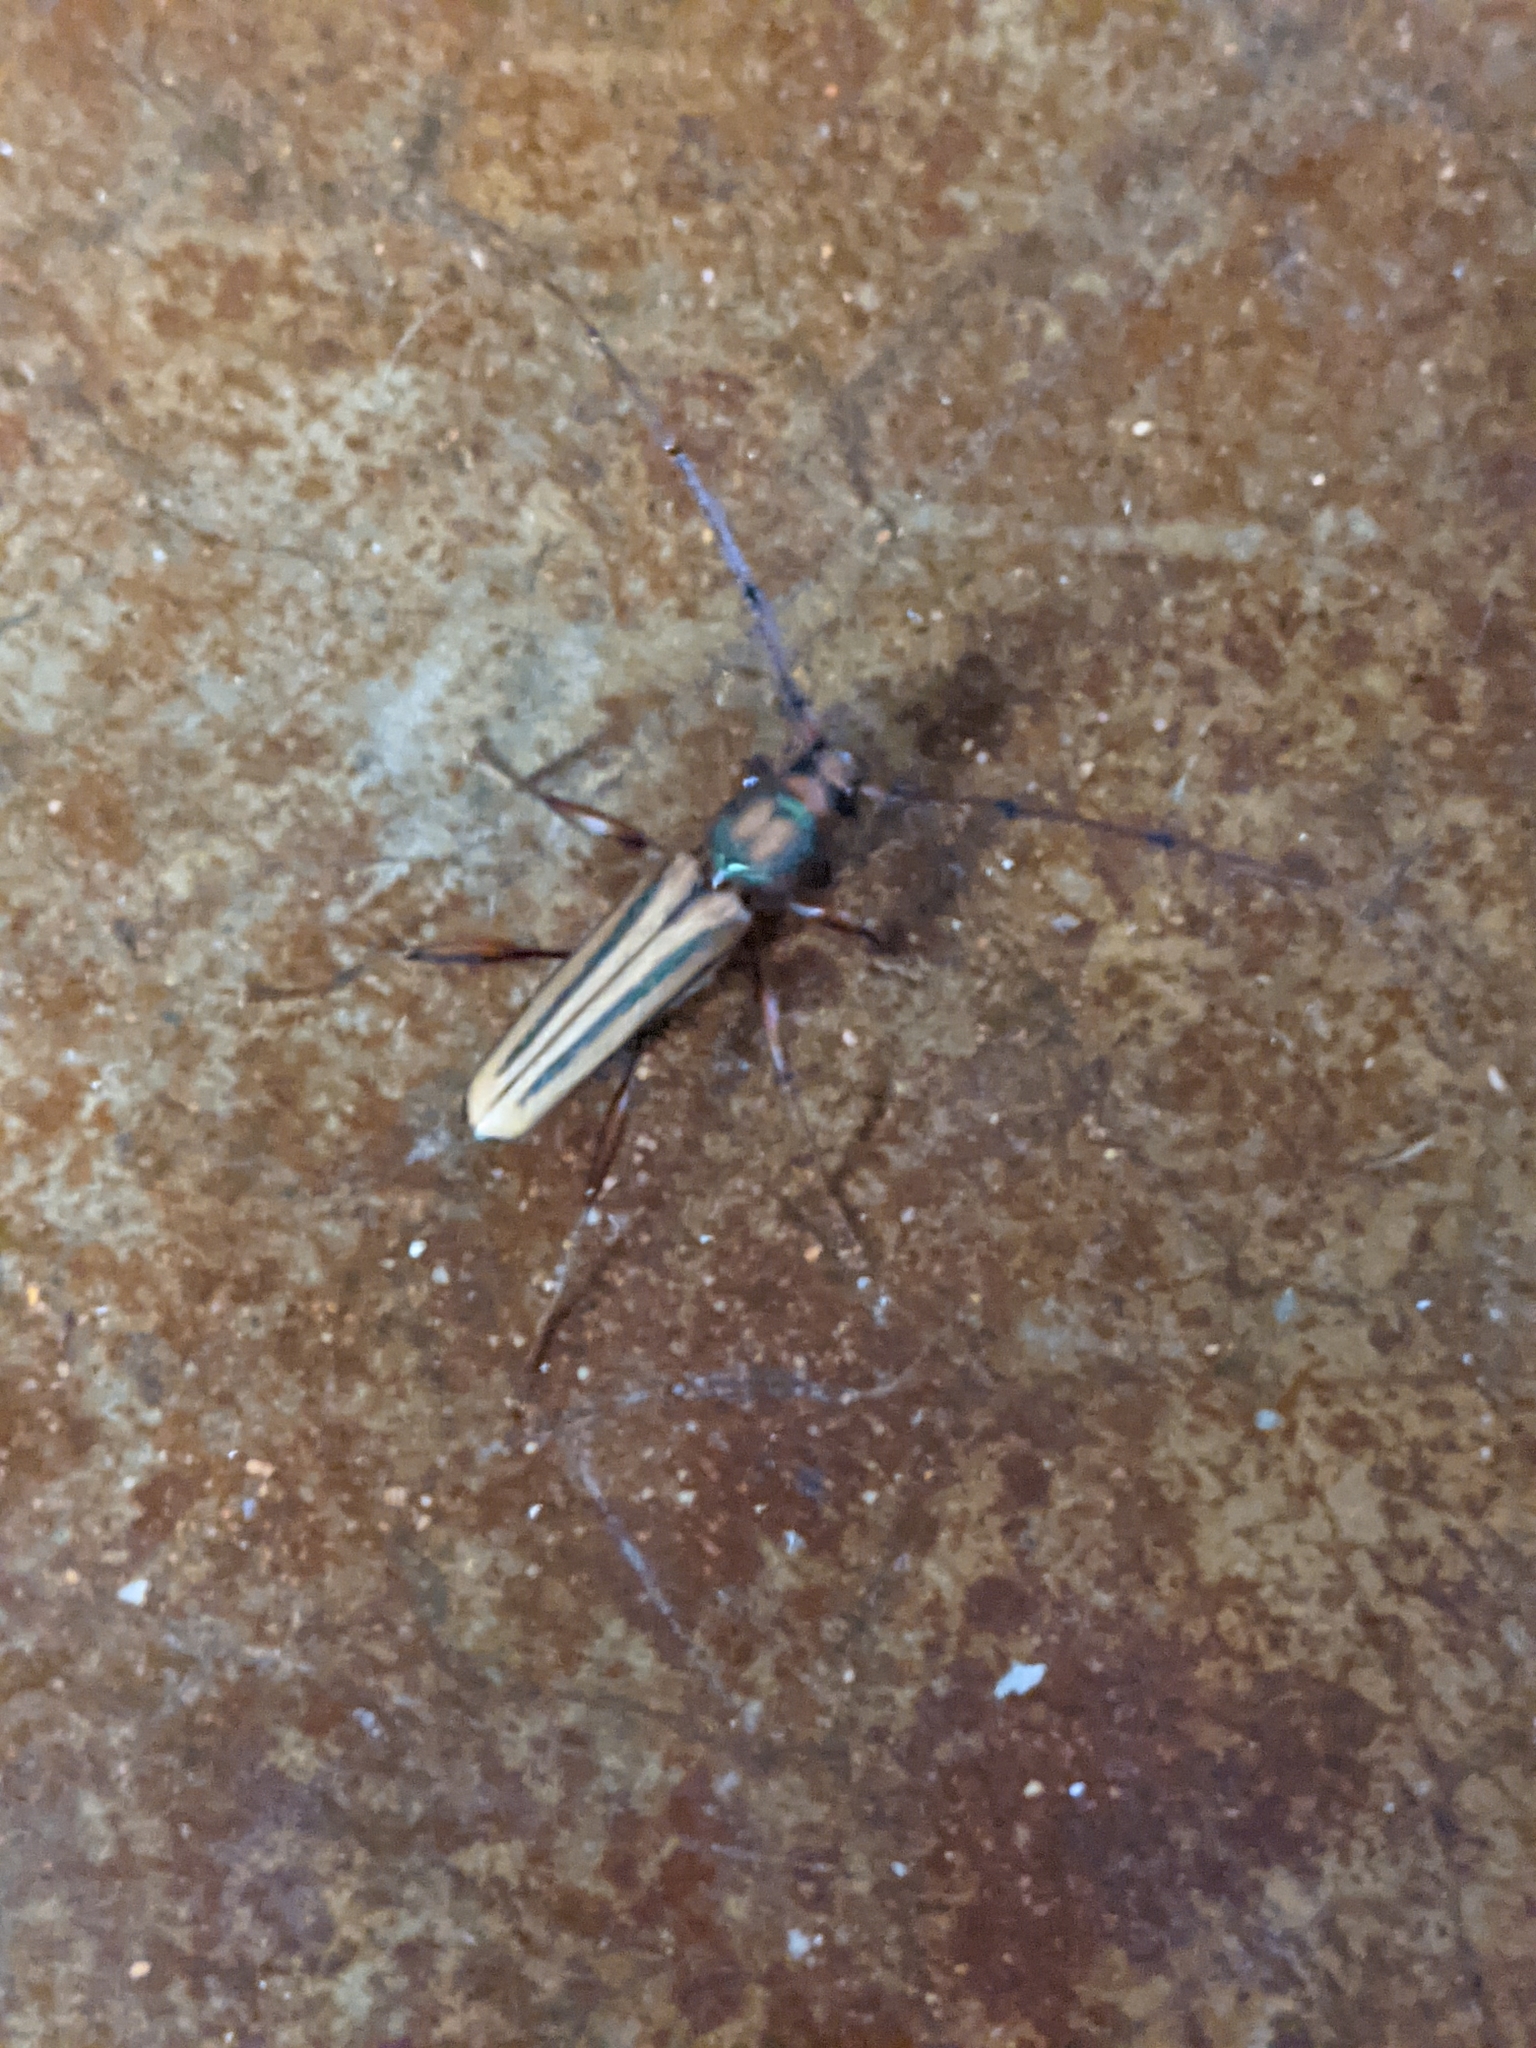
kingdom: Animalia
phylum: Arthropoda
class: Insecta
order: Coleoptera
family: Cerambycidae
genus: Xystrocera
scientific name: Xystrocera globosa
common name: Peach-tree longhorn
